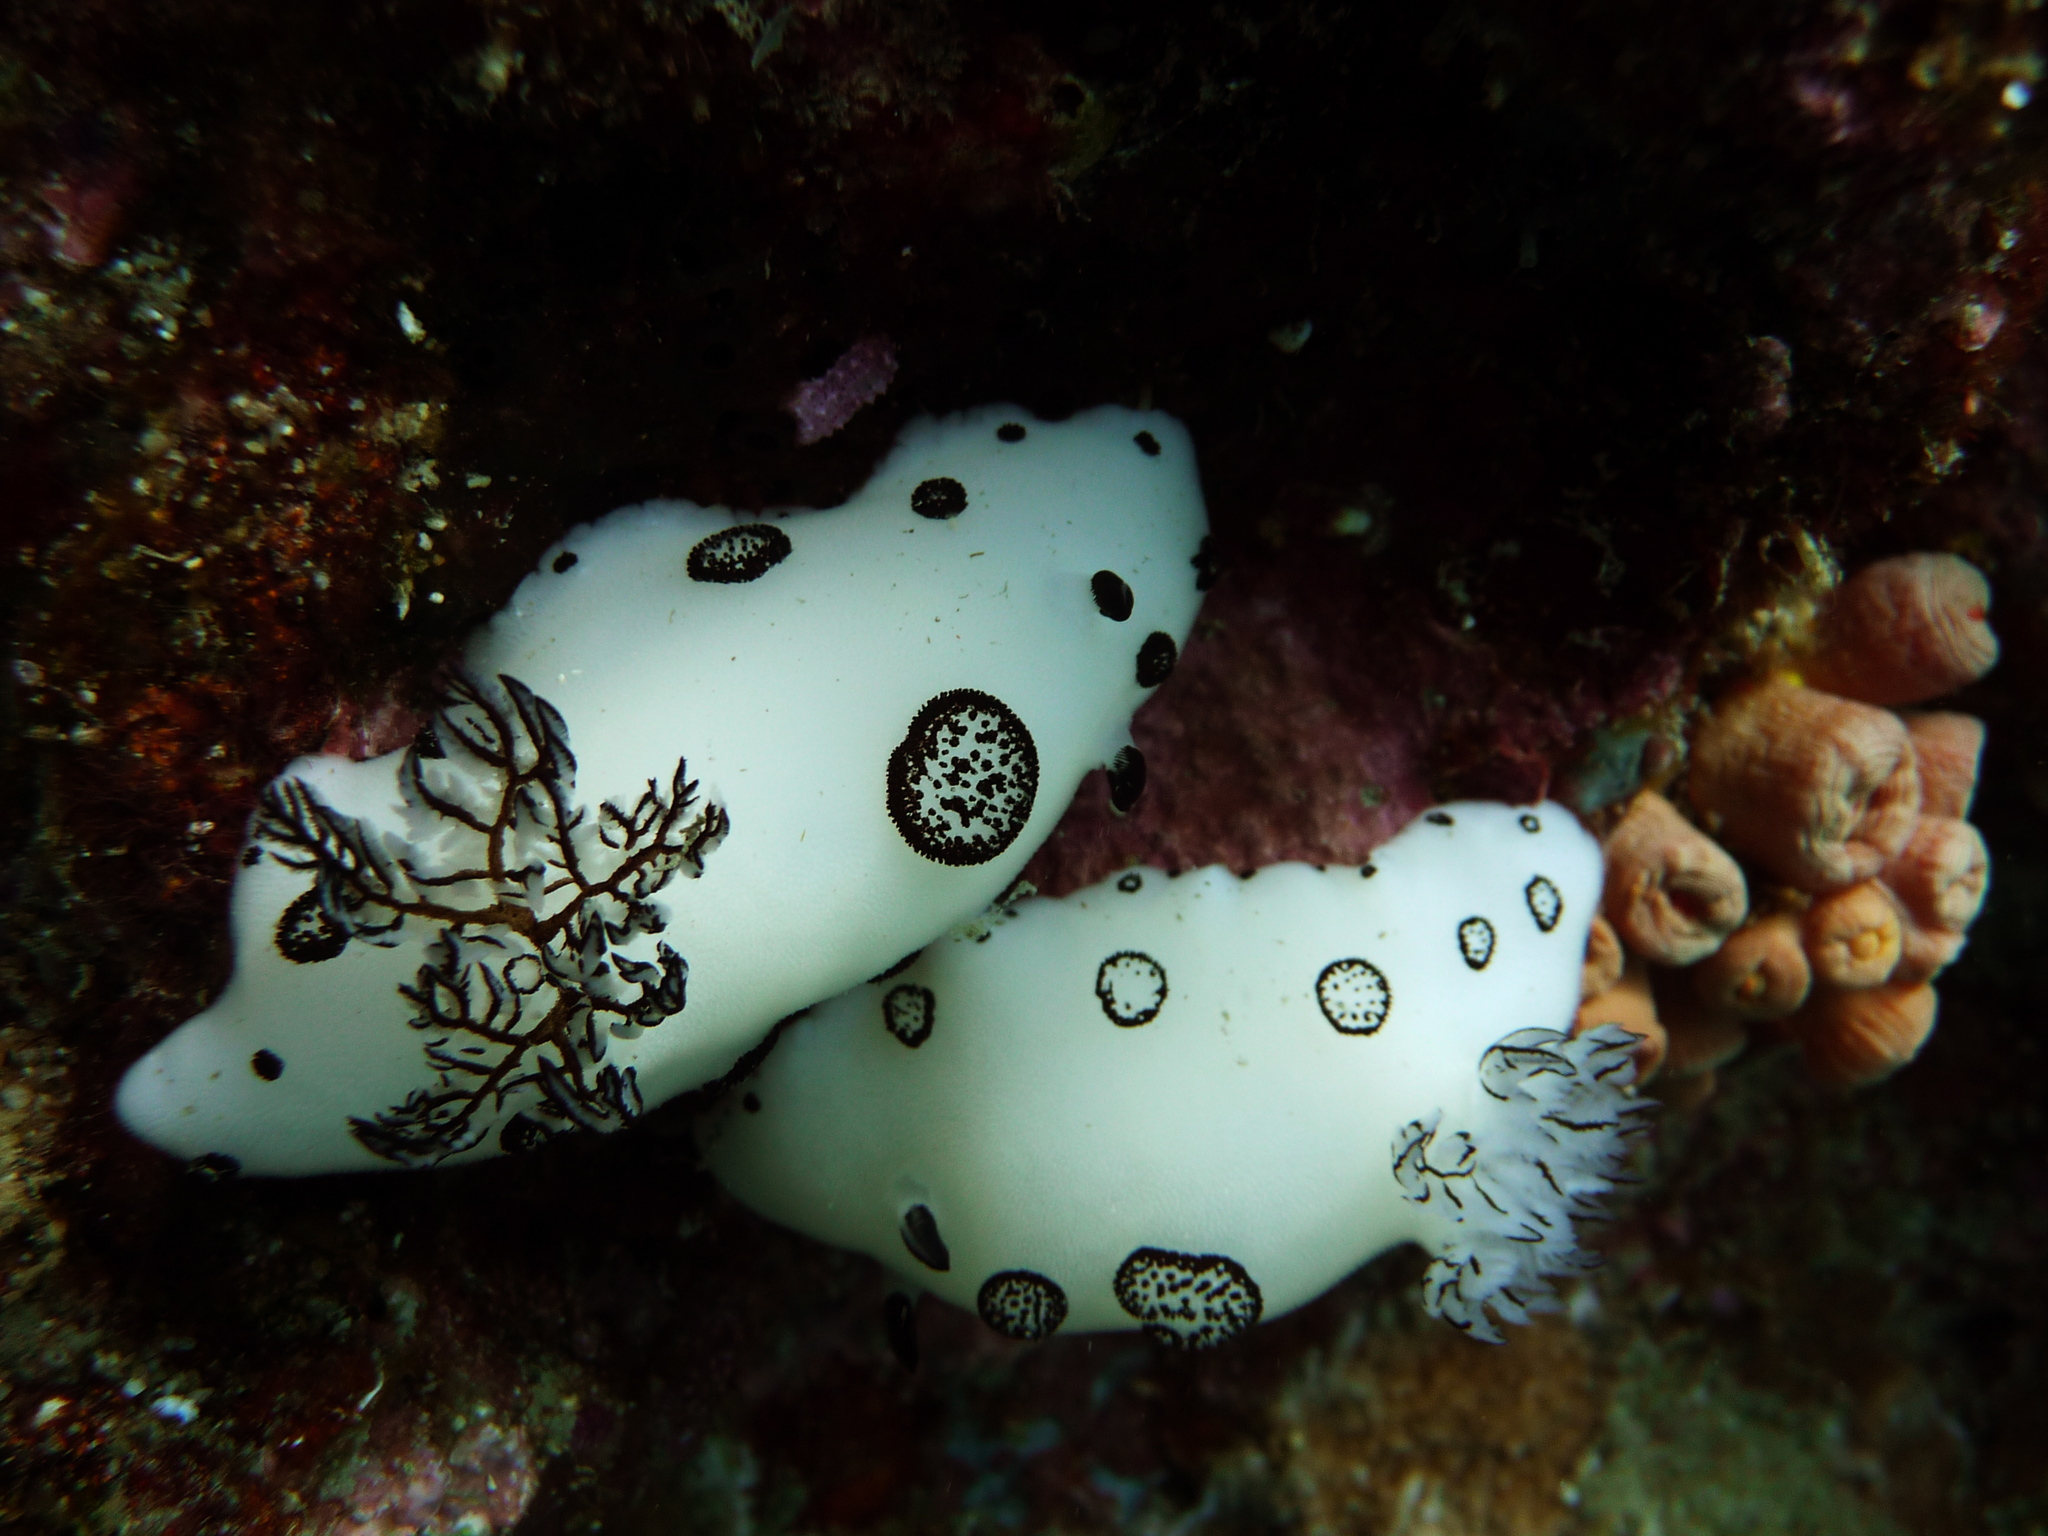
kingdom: Animalia
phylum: Mollusca
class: Gastropoda
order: Nudibranchia
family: Discodorididae
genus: Jorunna
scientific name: Jorunna funebris
